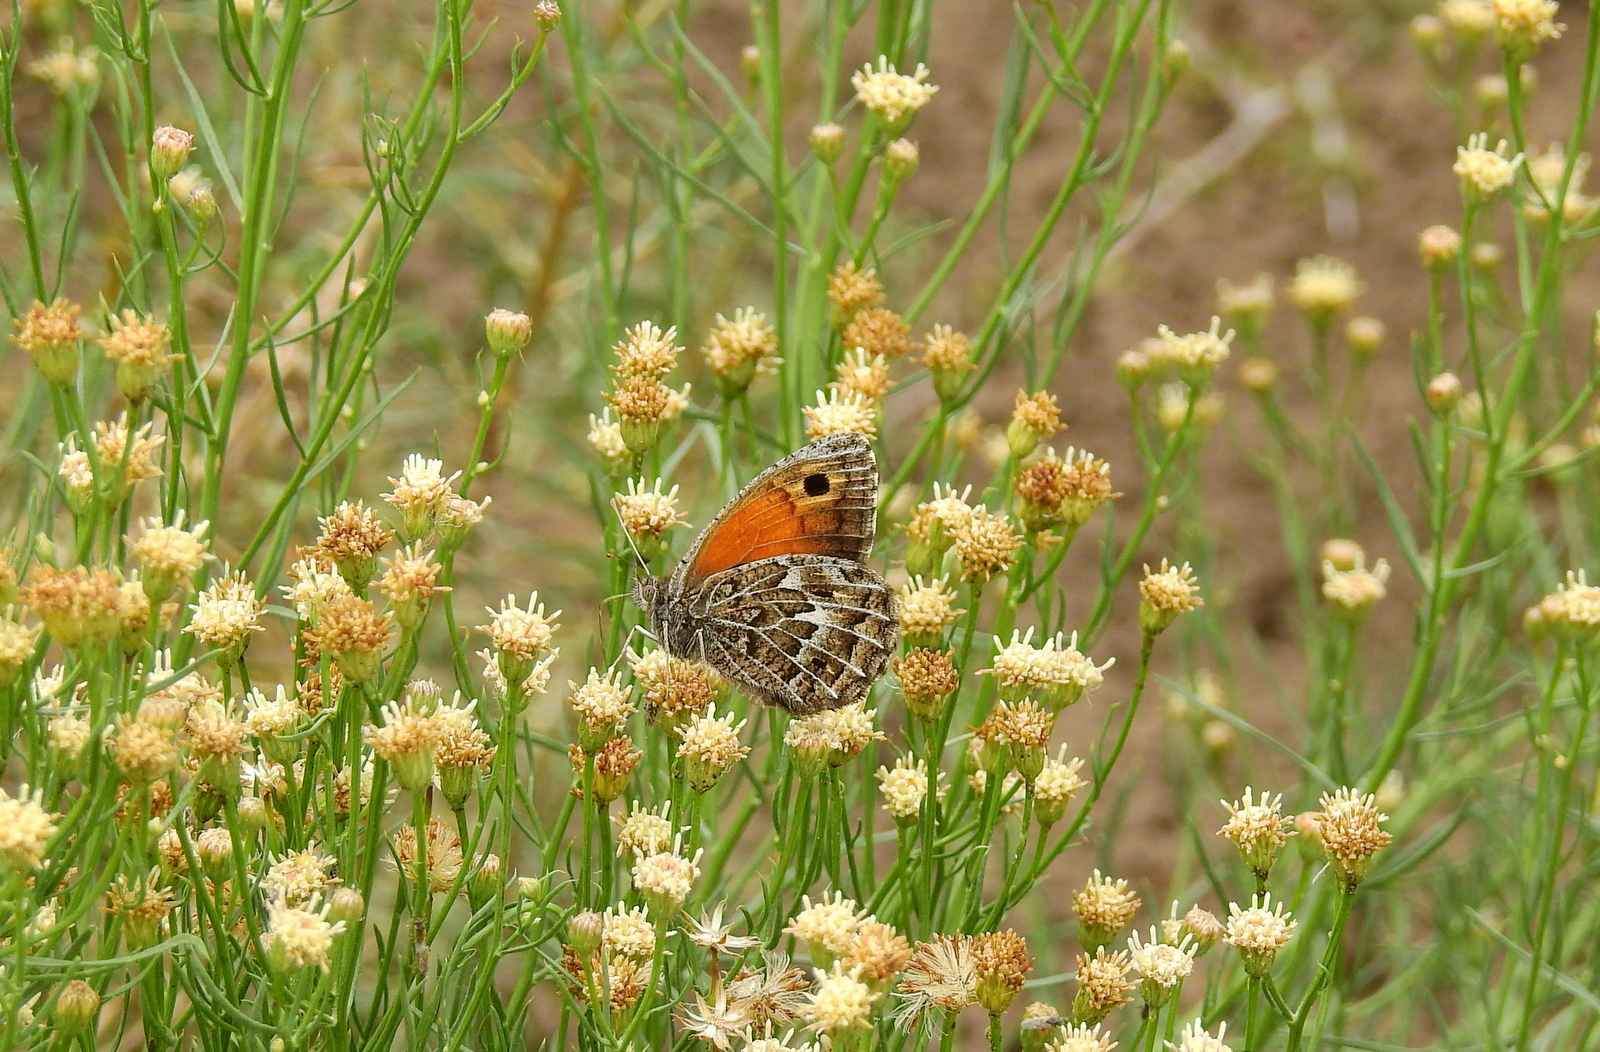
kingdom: Animalia
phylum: Arthropoda
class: Insecta
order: Lepidoptera
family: Nymphalidae
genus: Argyrophorus
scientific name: Argyrophorus
